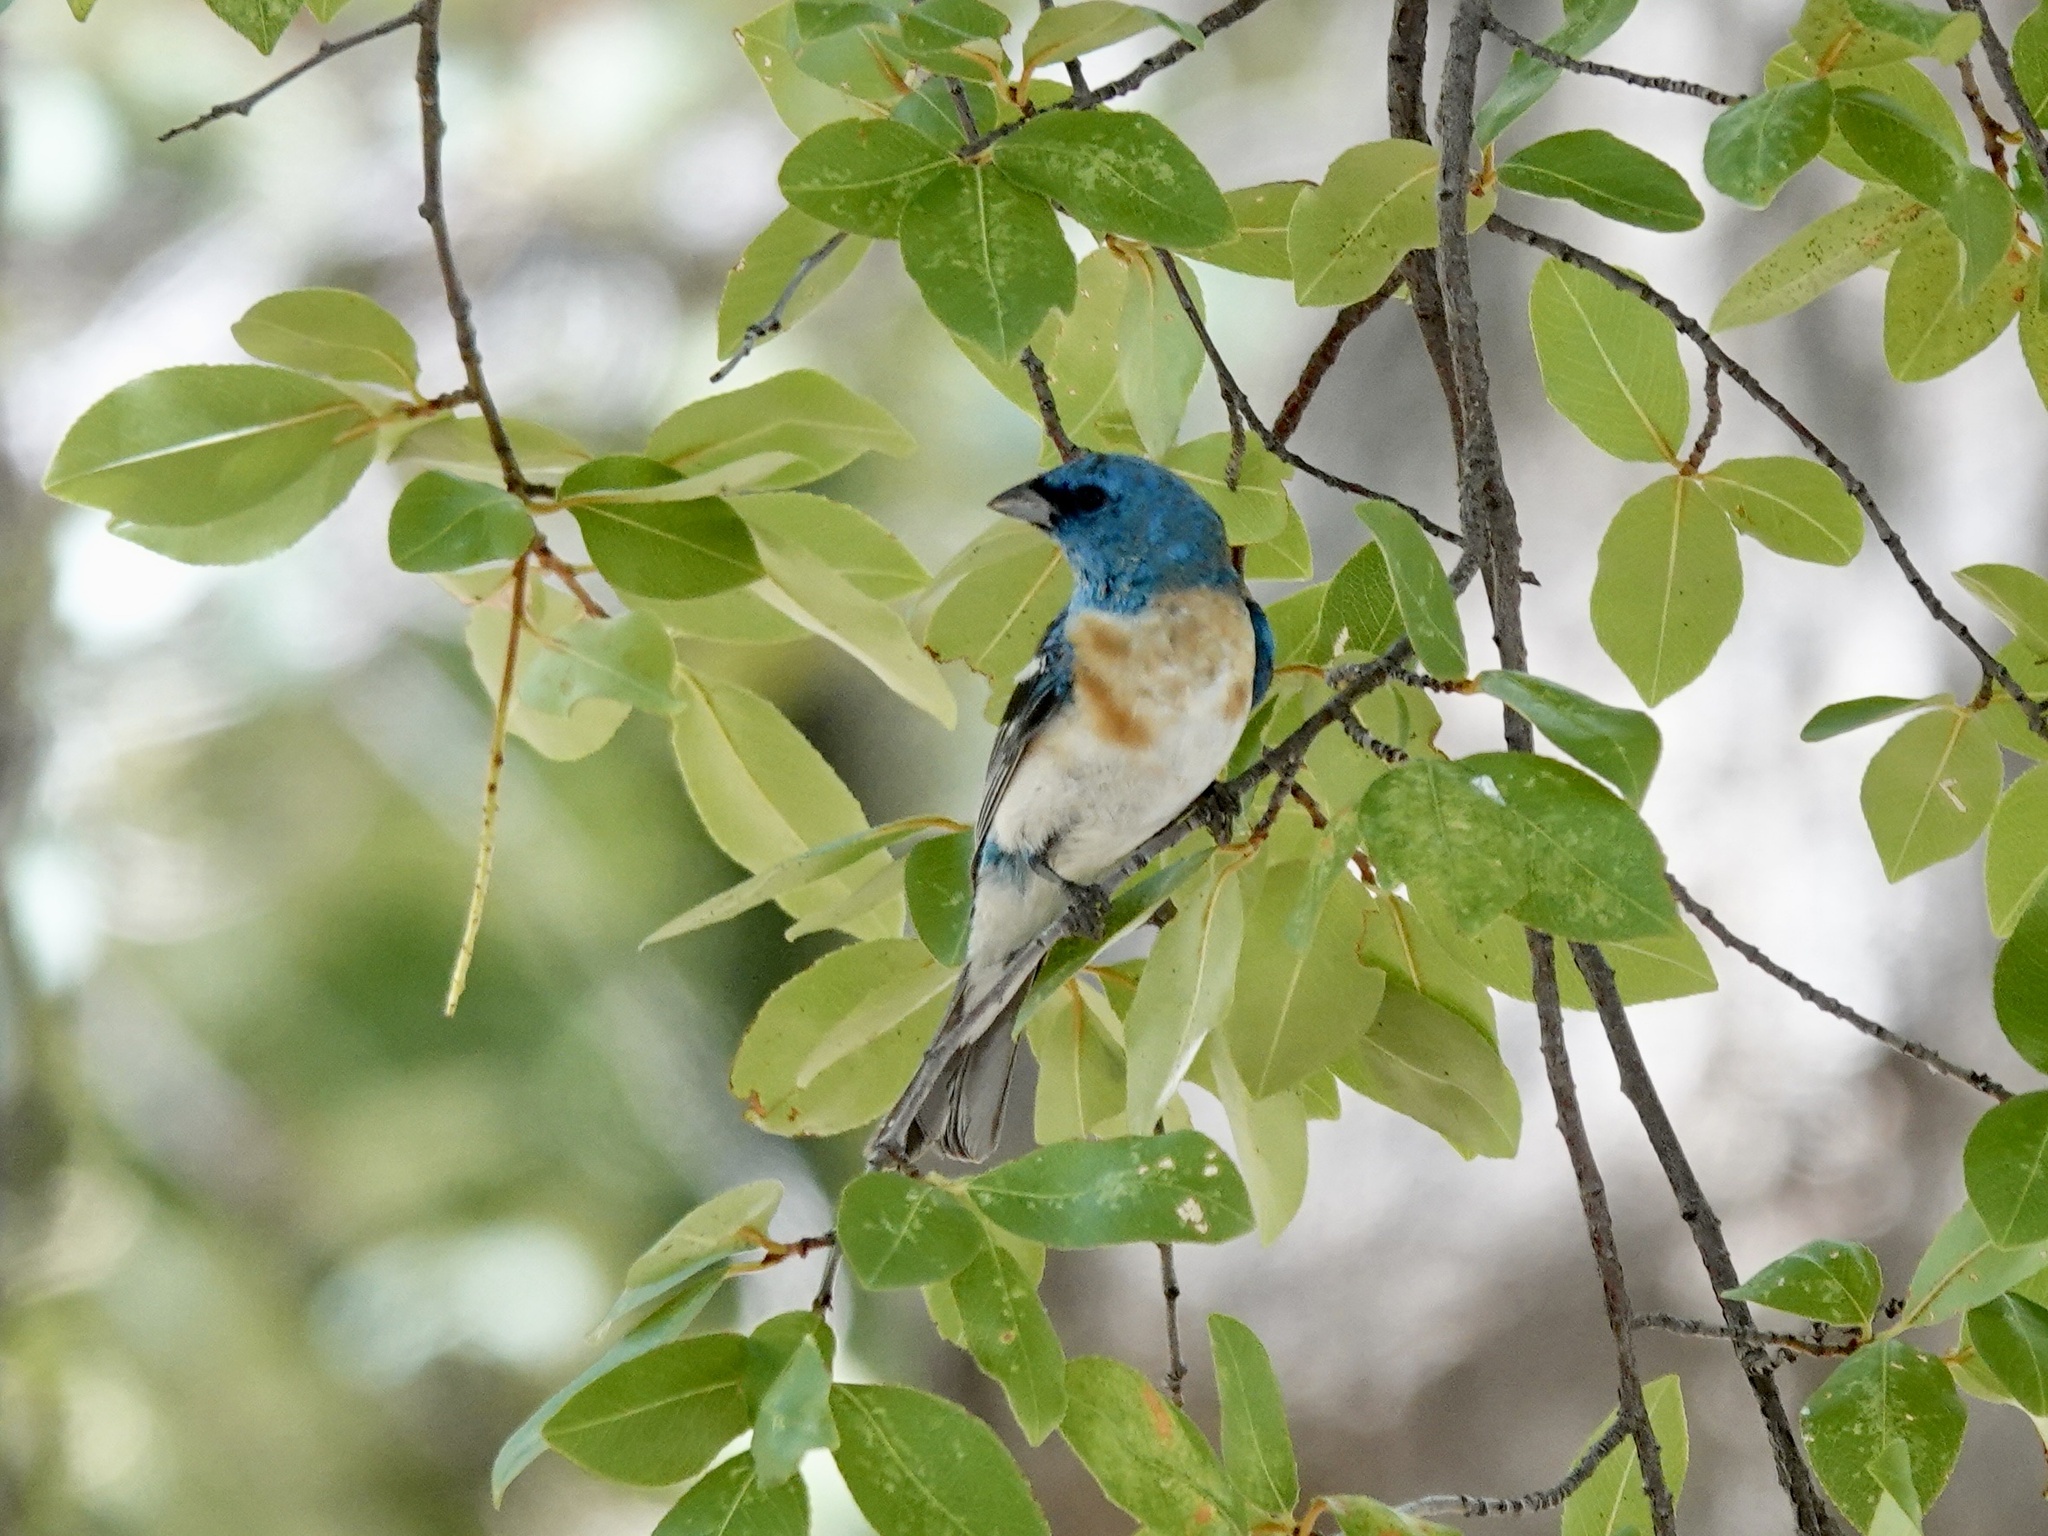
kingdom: Animalia
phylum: Chordata
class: Aves
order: Passeriformes
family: Cardinalidae
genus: Passerina
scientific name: Passerina amoena
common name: Lazuli bunting
